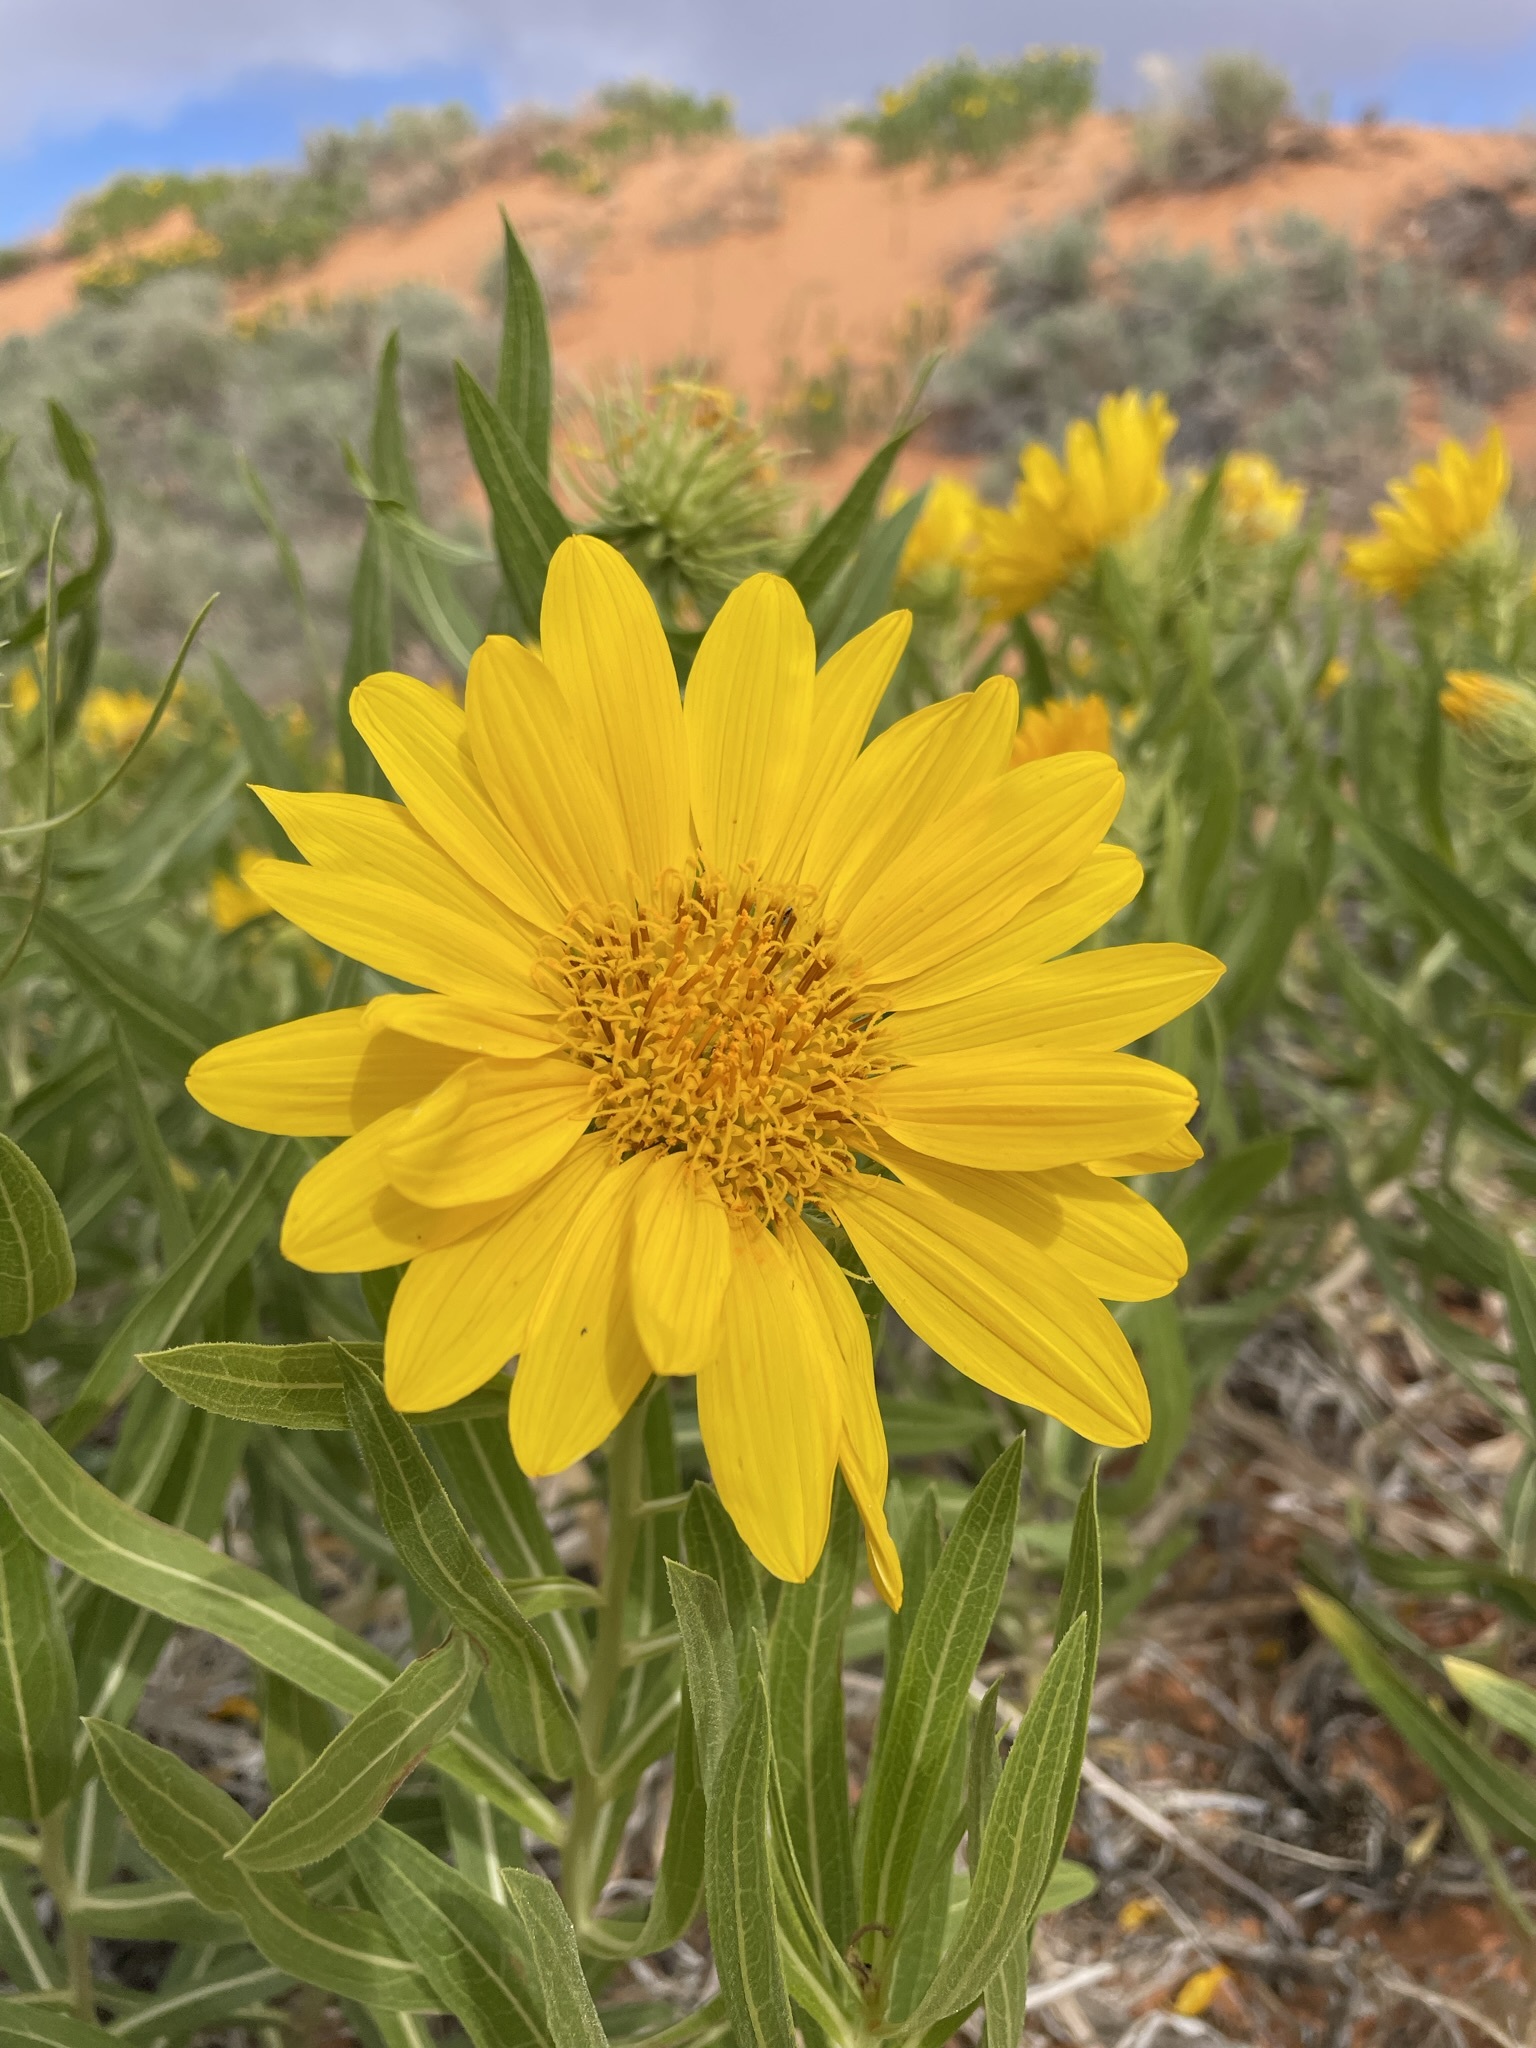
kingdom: Plantae
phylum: Tracheophyta
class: Magnoliopsida
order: Asterales
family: Asteraceae
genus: Scabrethia
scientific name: Scabrethia scabra
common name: Rough mules's-ears
